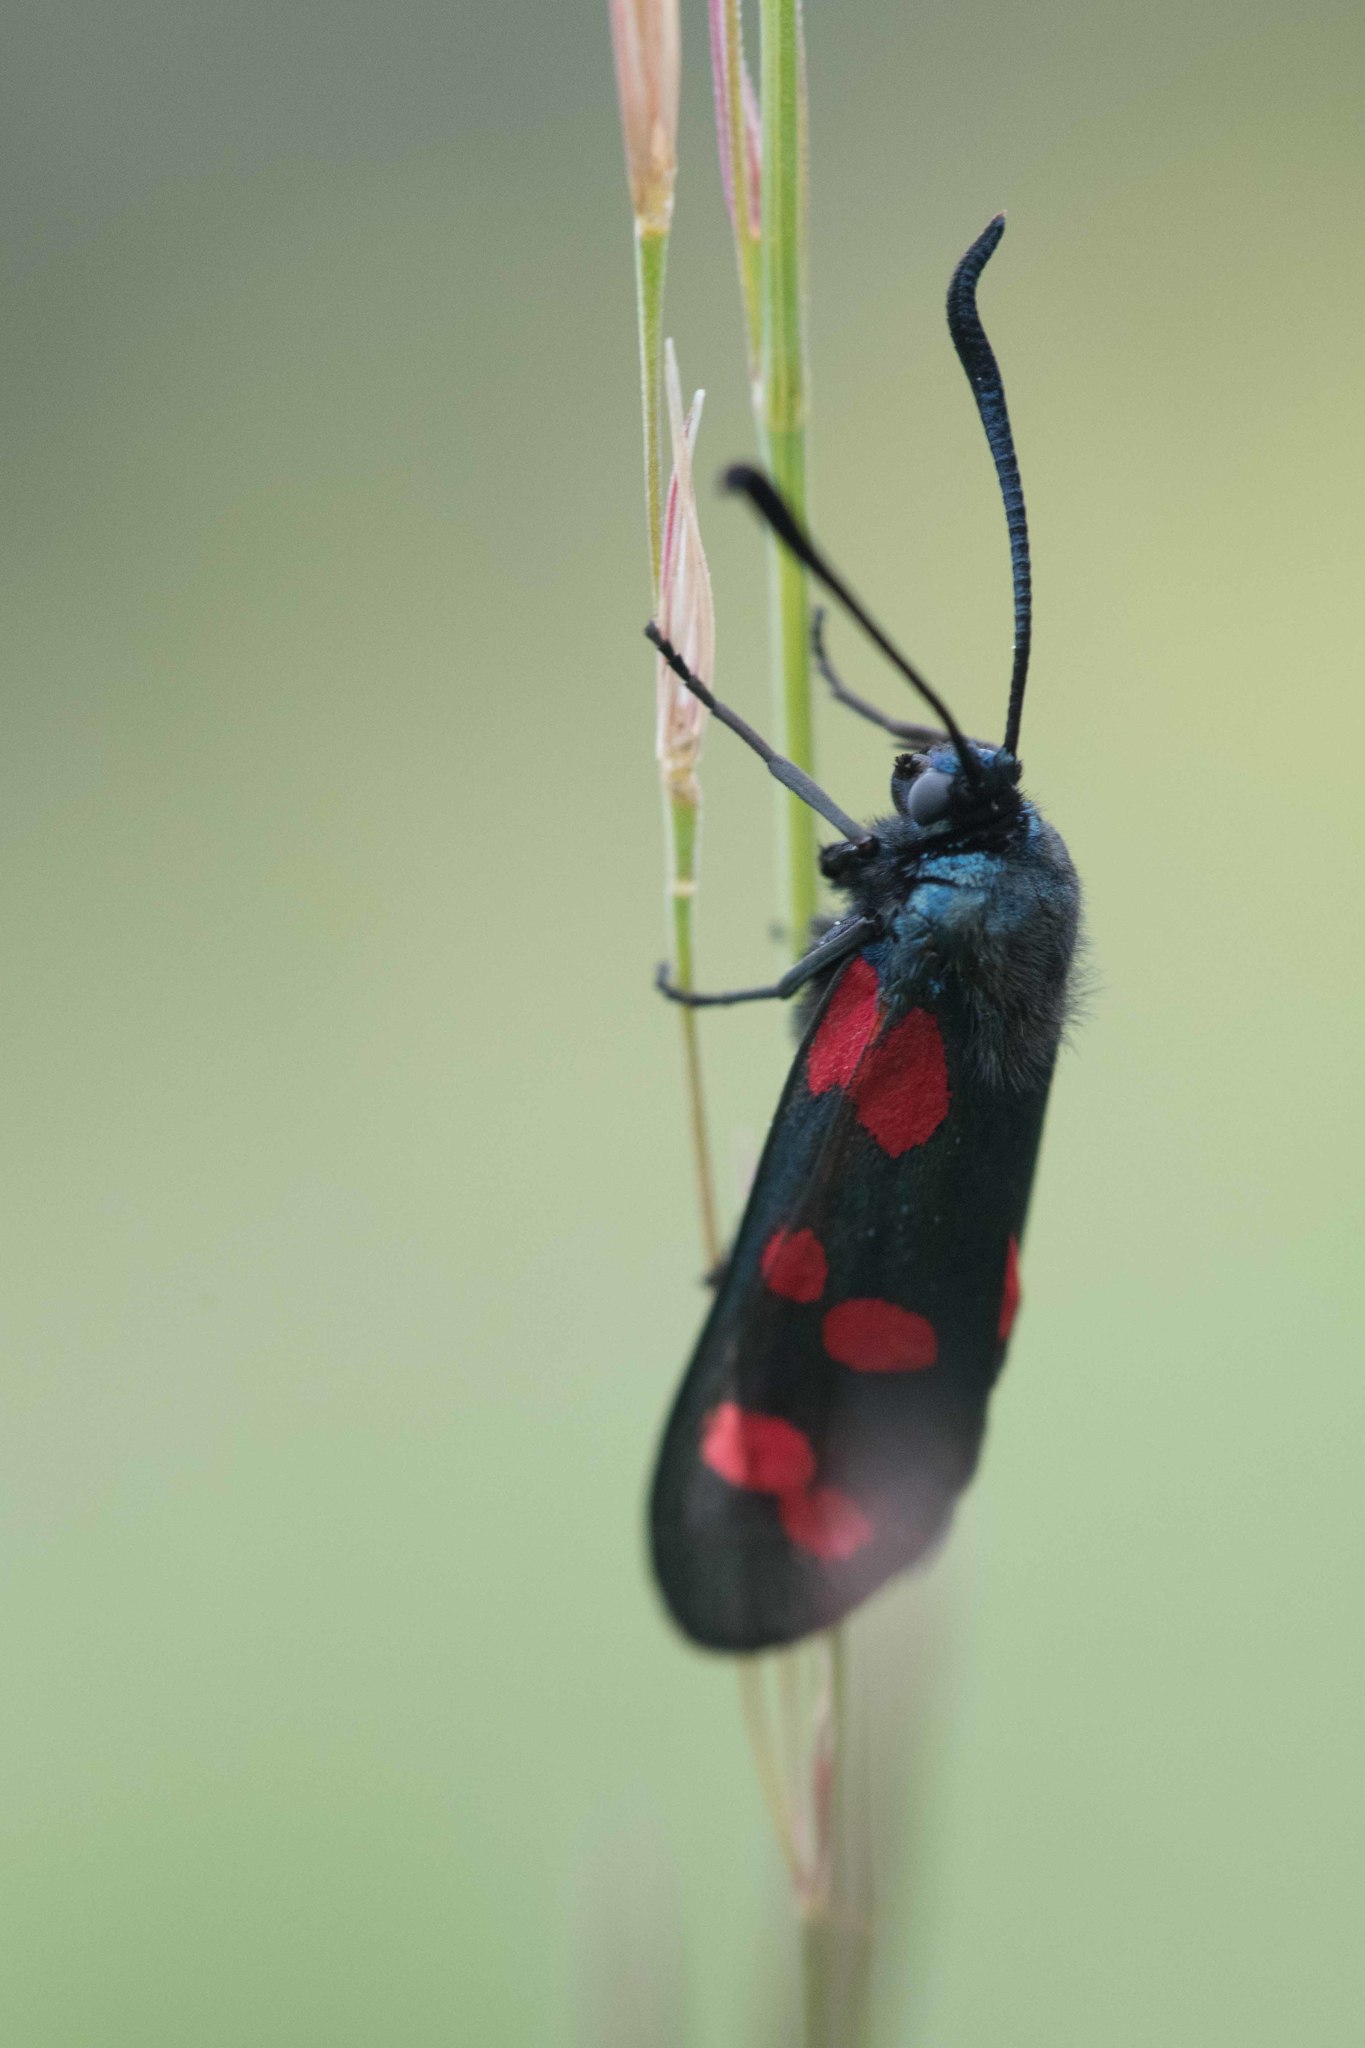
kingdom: Animalia
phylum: Arthropoda
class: Insecta
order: Lepidoptera
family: Zygaenidae
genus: Zygaena
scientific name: Zygaena filipendulae
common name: Six-spot burnet
